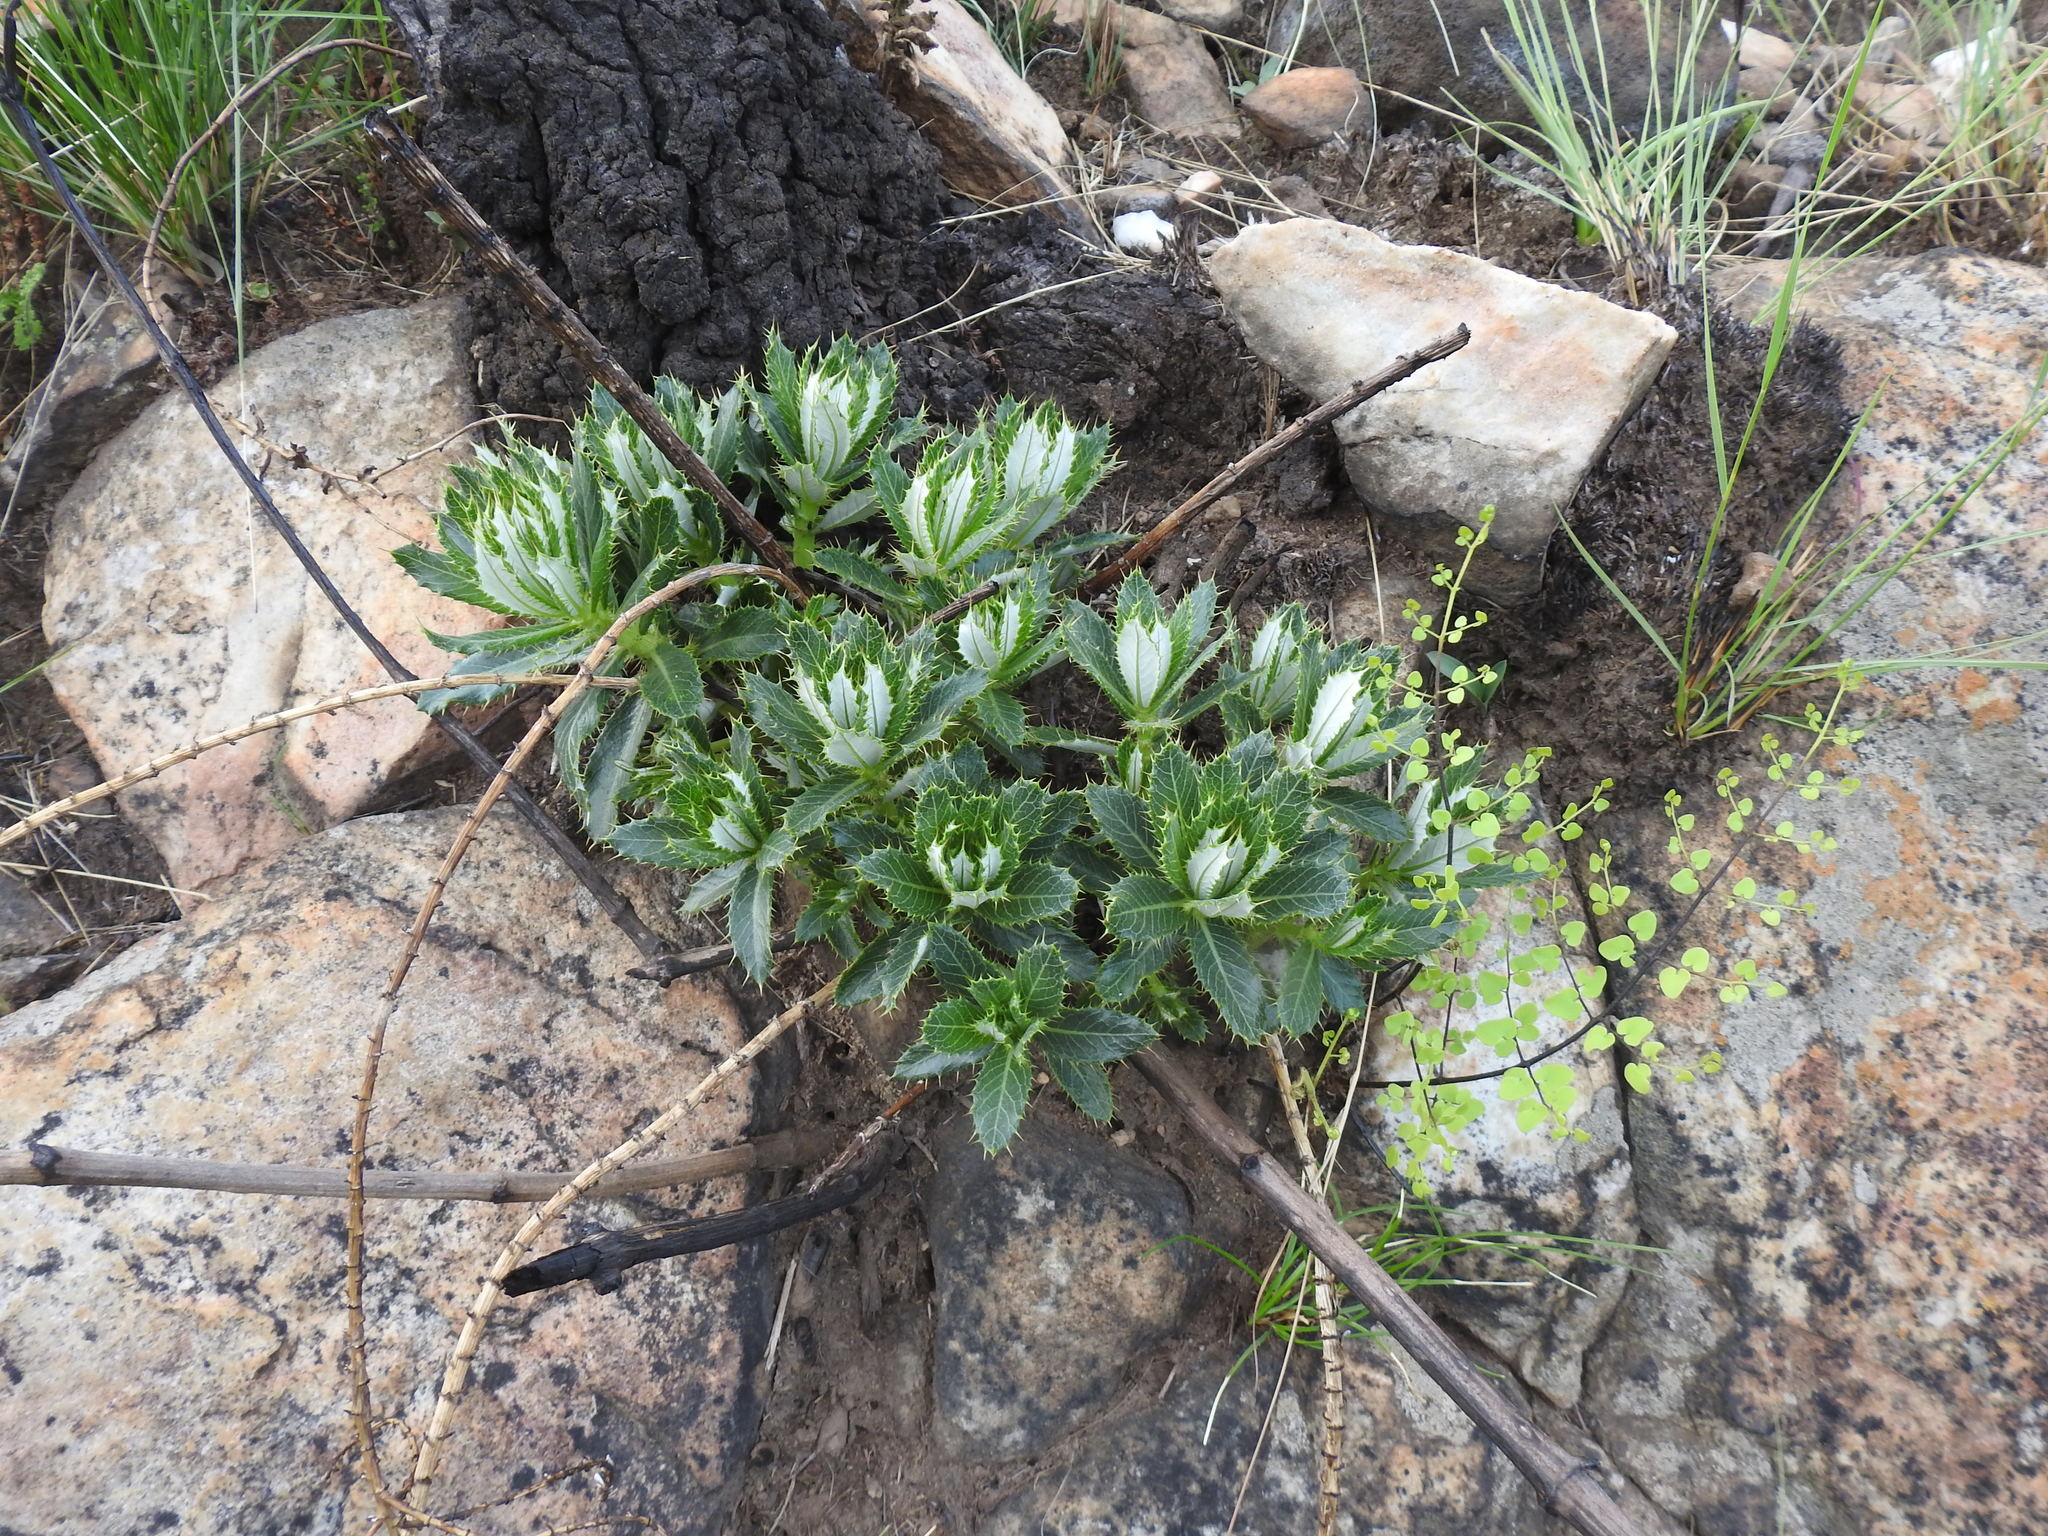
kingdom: Plantae
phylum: Tracheophyta
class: Magnoliopsida
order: Asterales
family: Asteraceae
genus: Berkheya
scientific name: Berkheya carlinopsis
